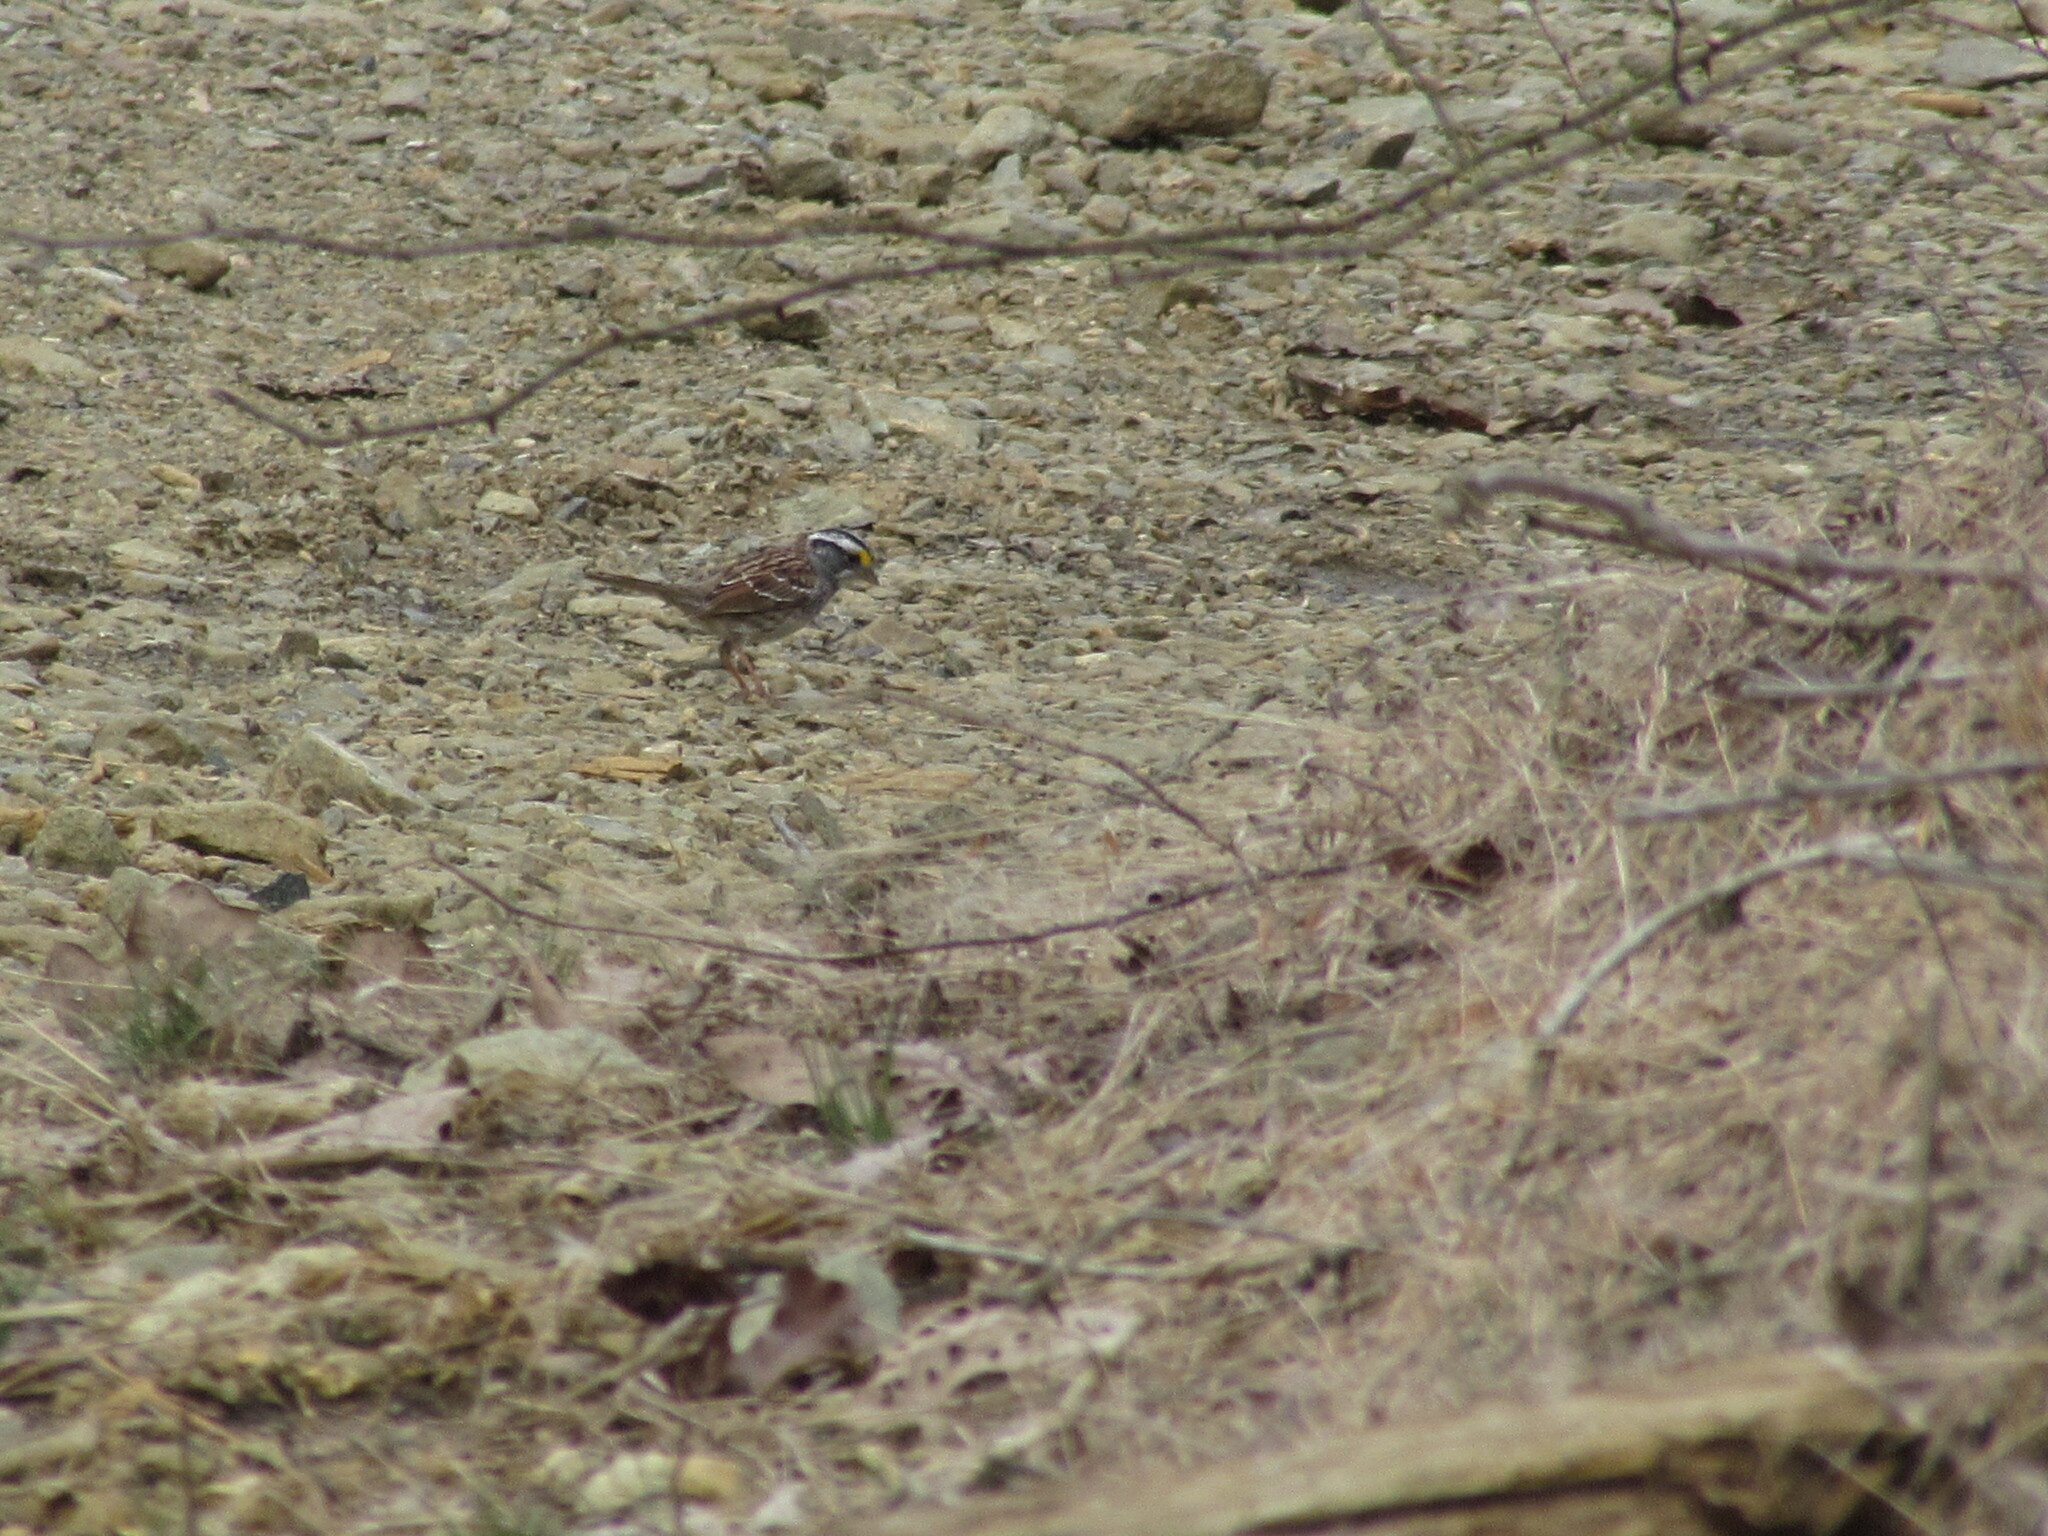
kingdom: Animalia
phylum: Chordata
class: Aves
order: Passeriformes
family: Passerellidae
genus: Zonotrichia
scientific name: Zonotrichia albicollis
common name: White-throated sparrow
